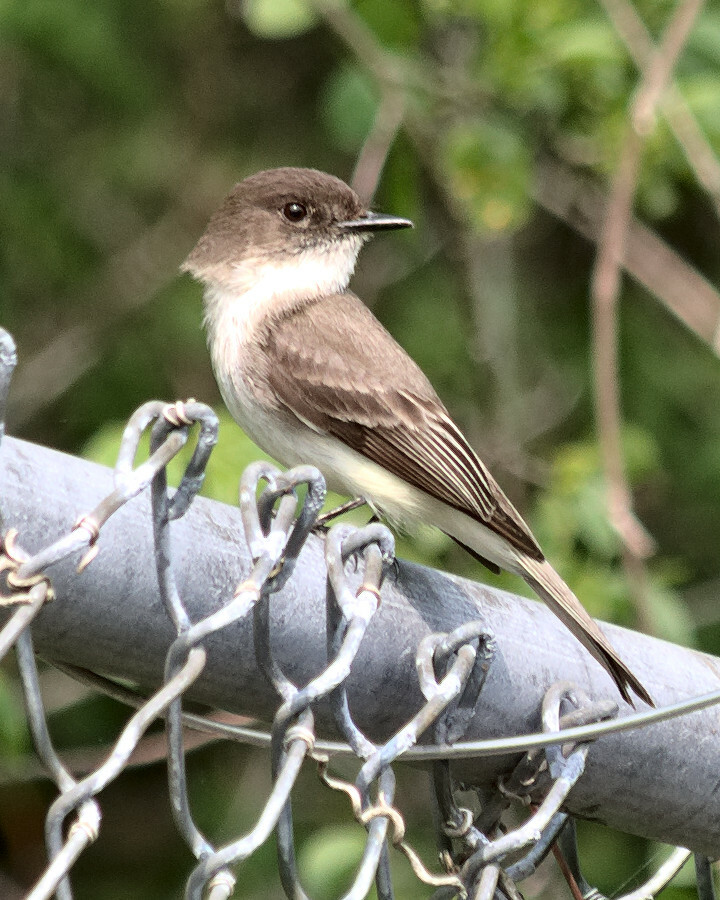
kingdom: Animalia
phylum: Chordata
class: Aves
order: Passeriformes
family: Tyrannidae
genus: Sayornis
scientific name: Sayornis phoebe
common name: Eastern phoebe
